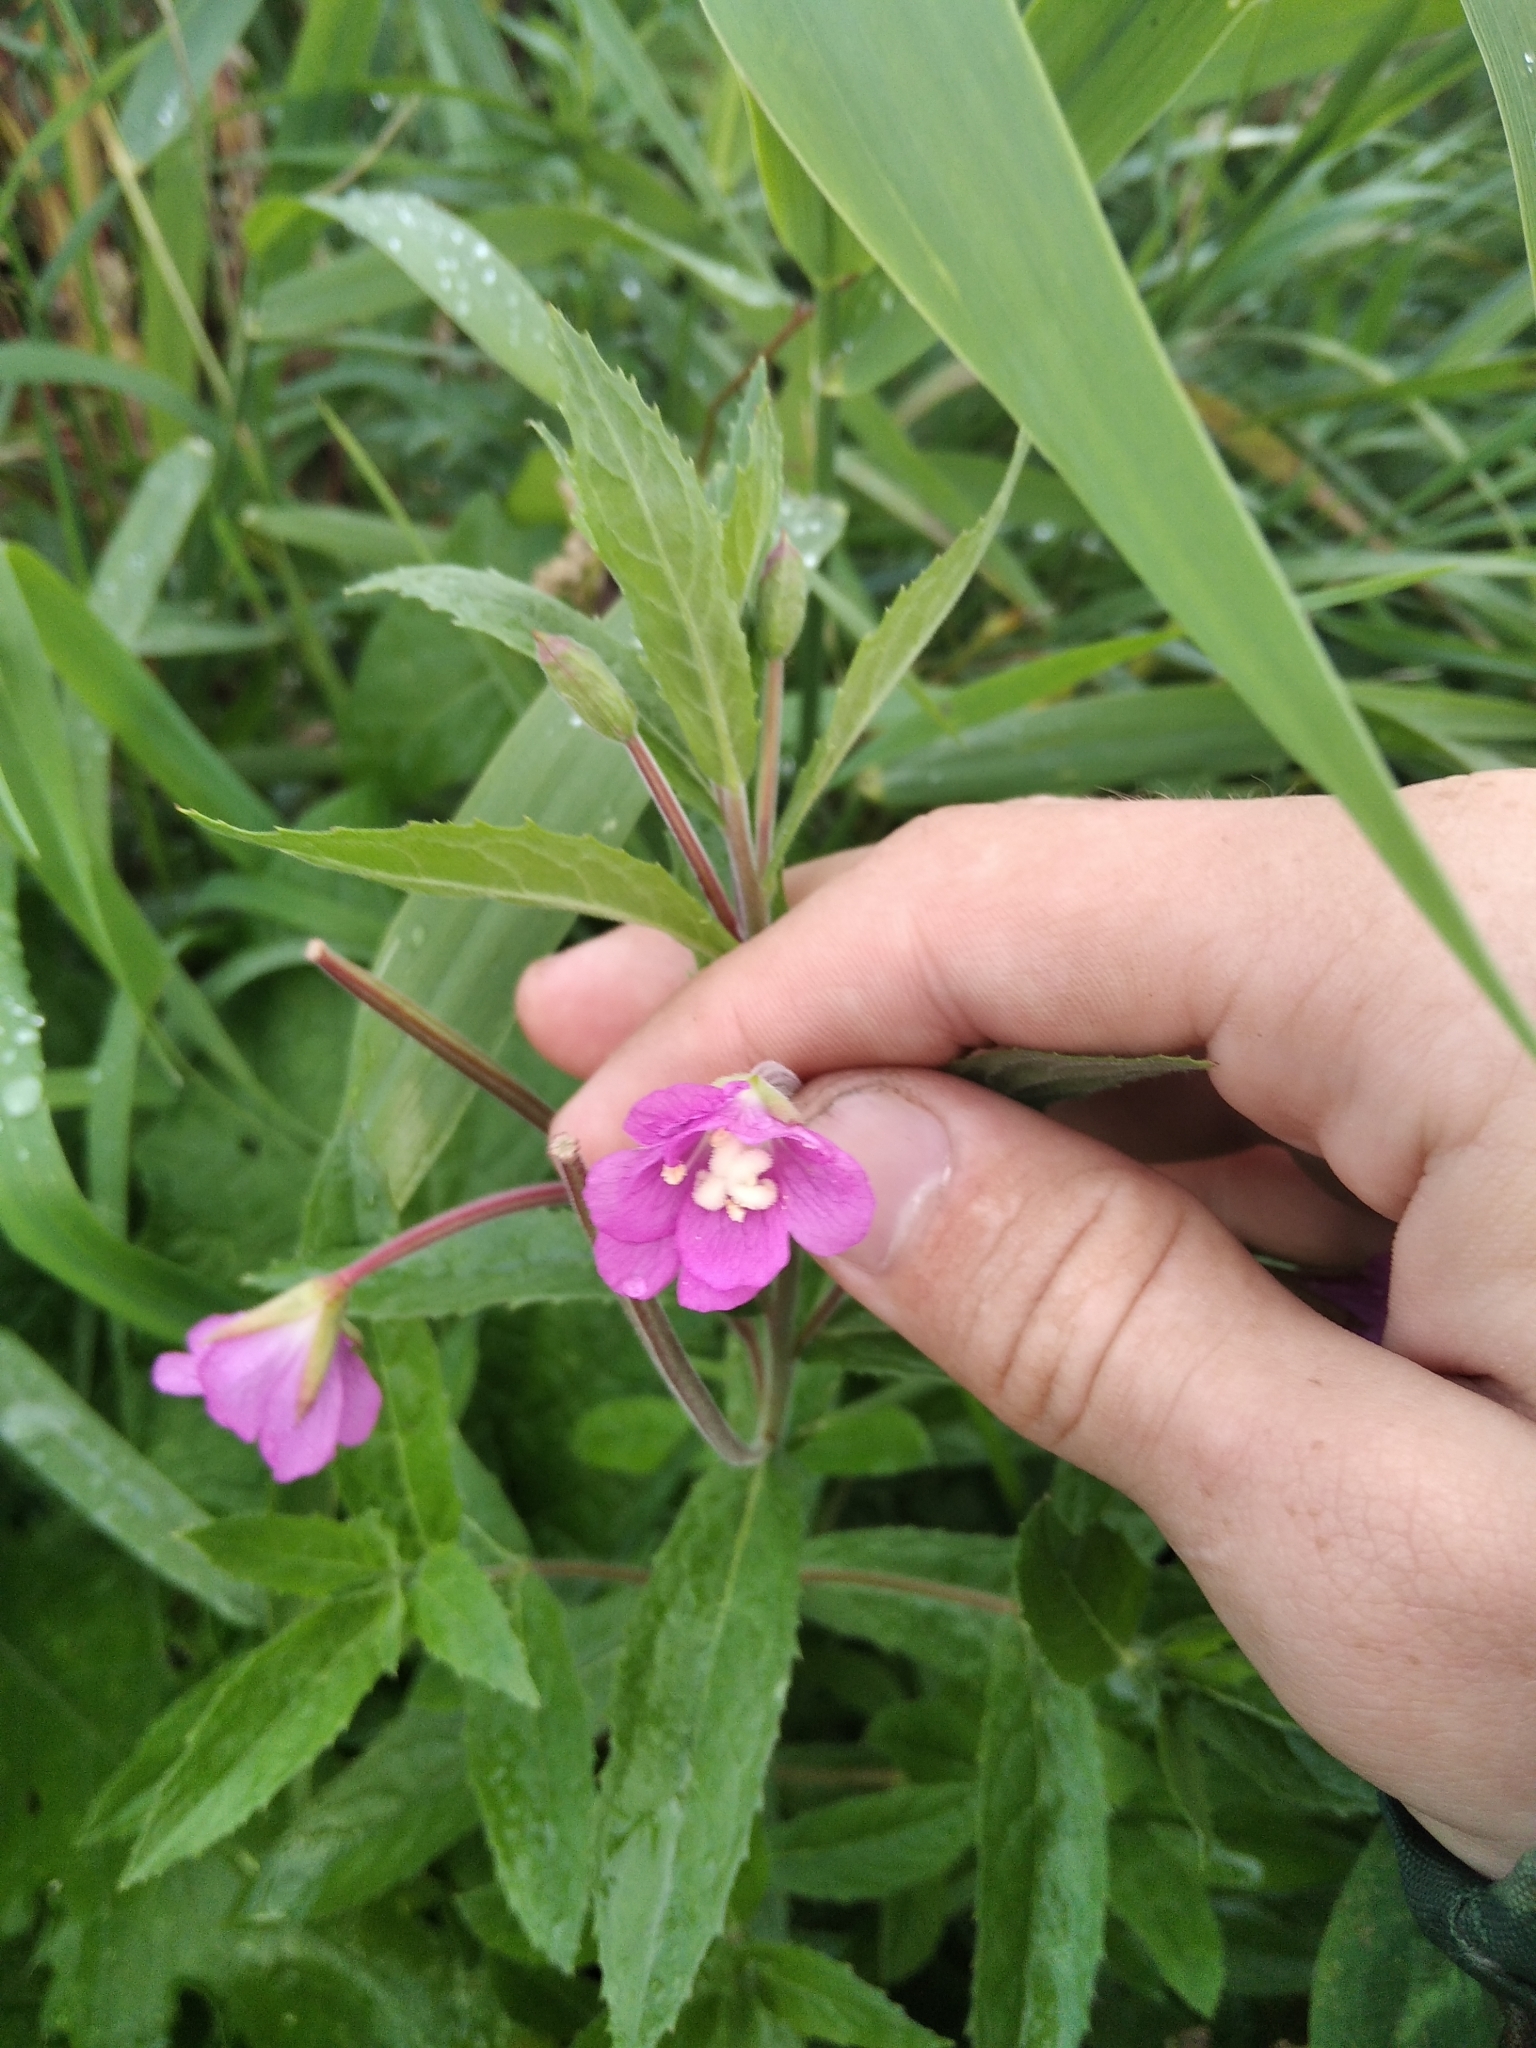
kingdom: Plantae
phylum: Tracheophyta
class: Magnoliopsida
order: Myrtales
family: Onagraceae
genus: Epilobium
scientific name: Epilobium hirsutum
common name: Great willowherb
